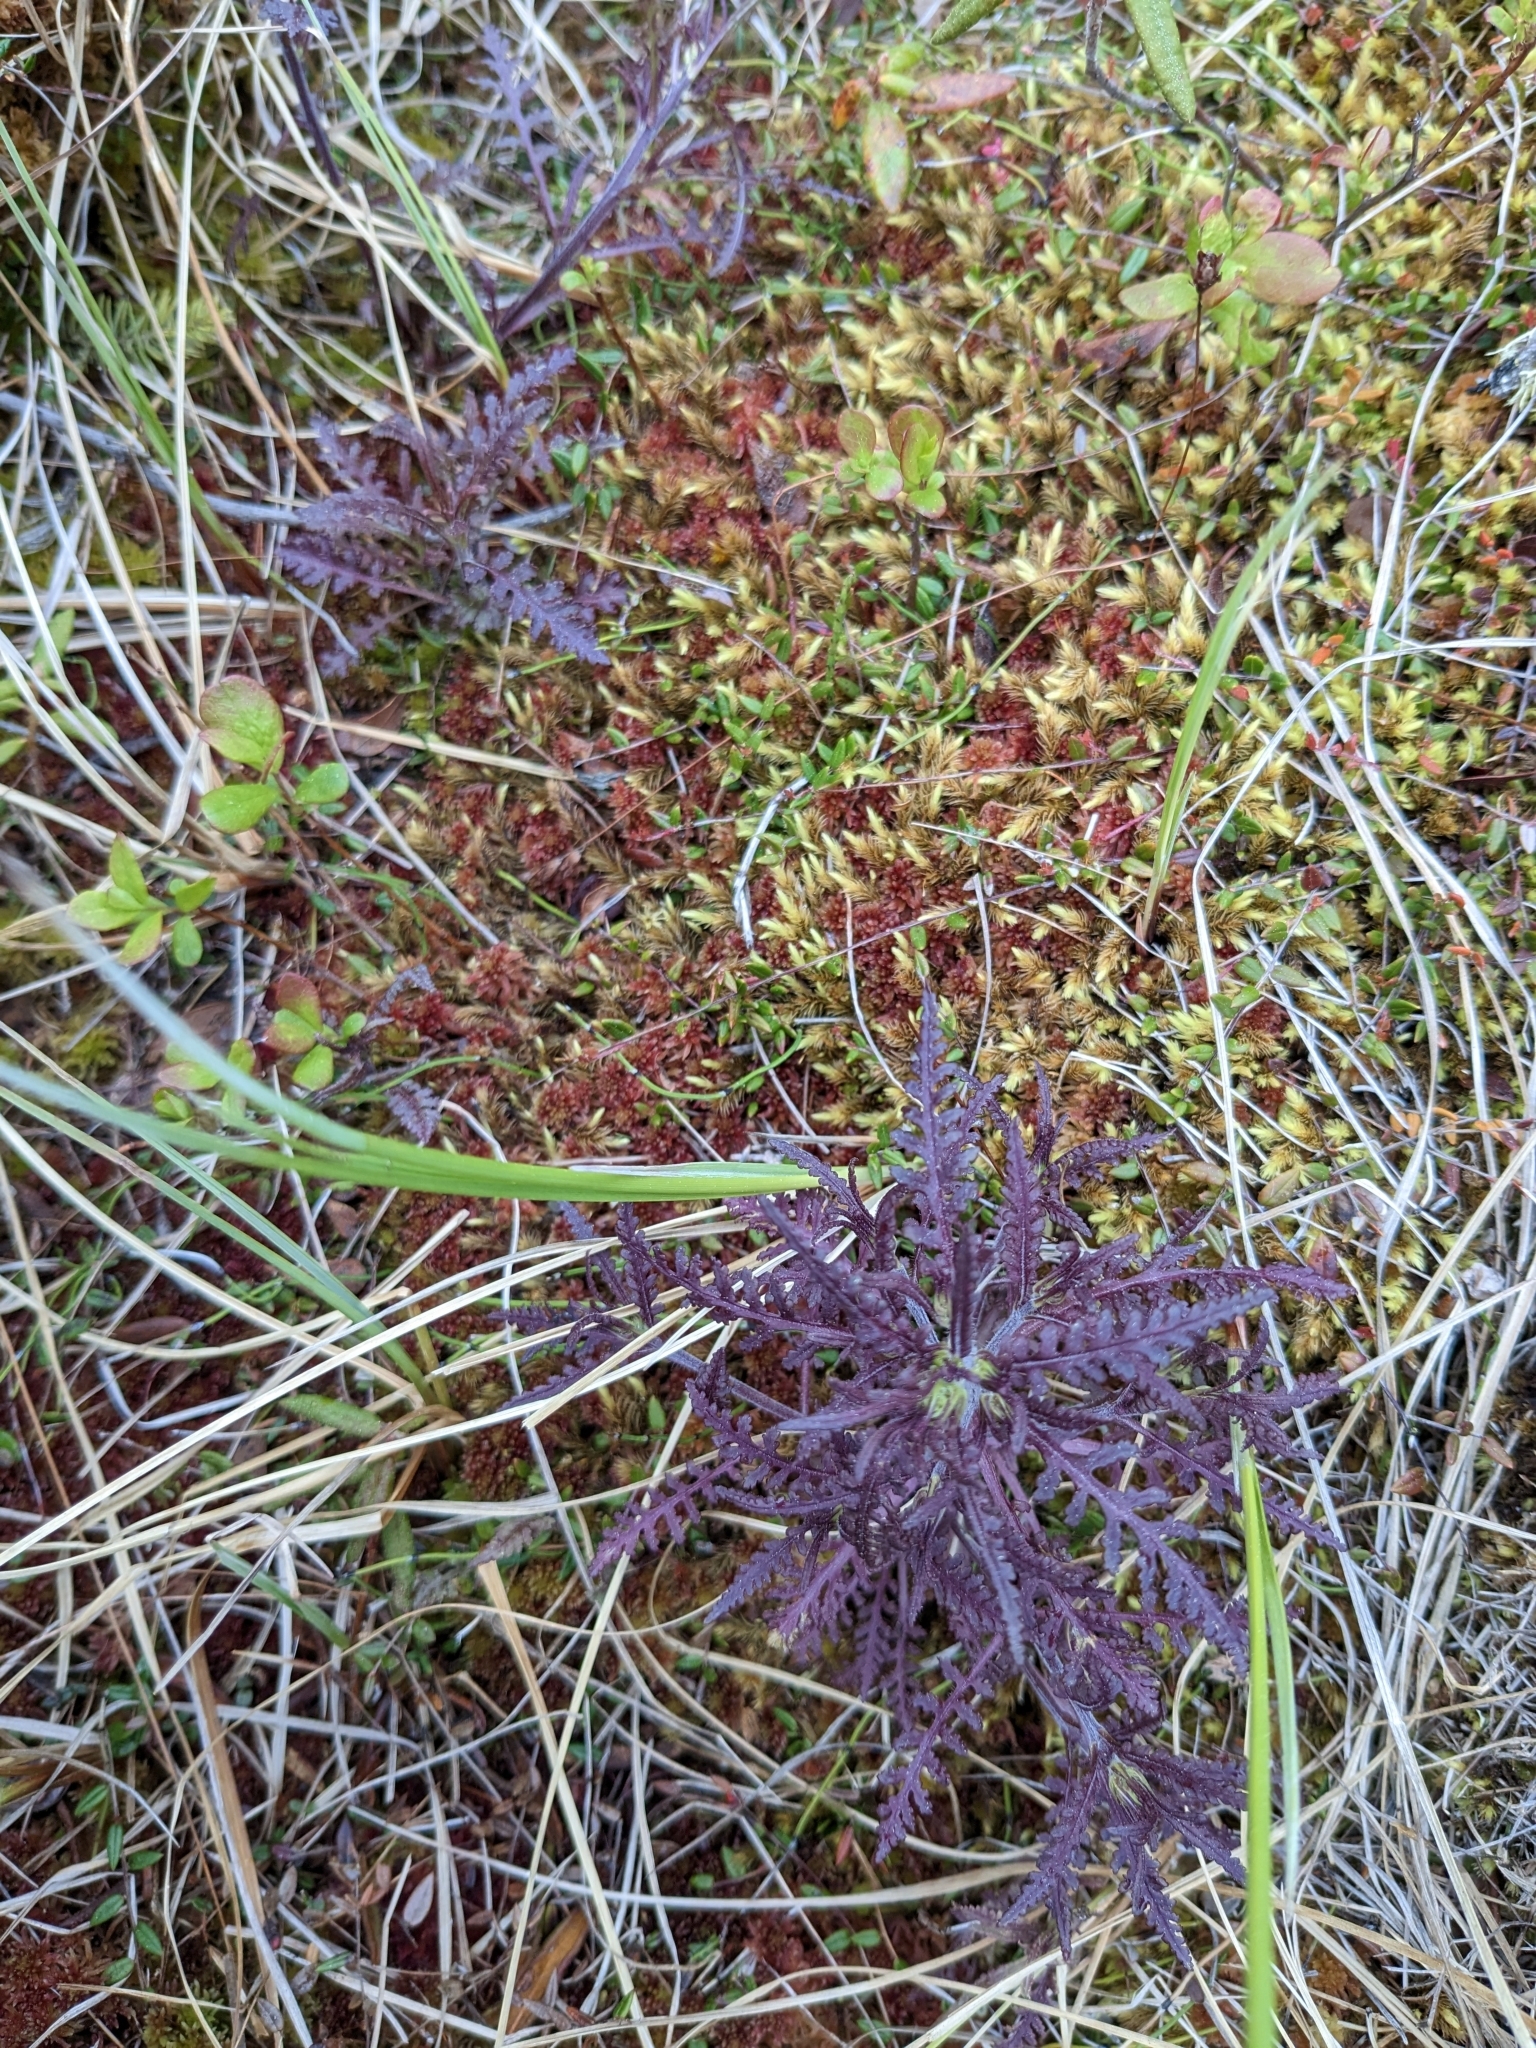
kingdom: Plantae
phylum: Tracheophyta
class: Magnoliopsida
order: Lamiales
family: Orobanchaceae
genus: Pedicularis
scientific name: Pedicularis labradorica
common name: Labrador lousewort
